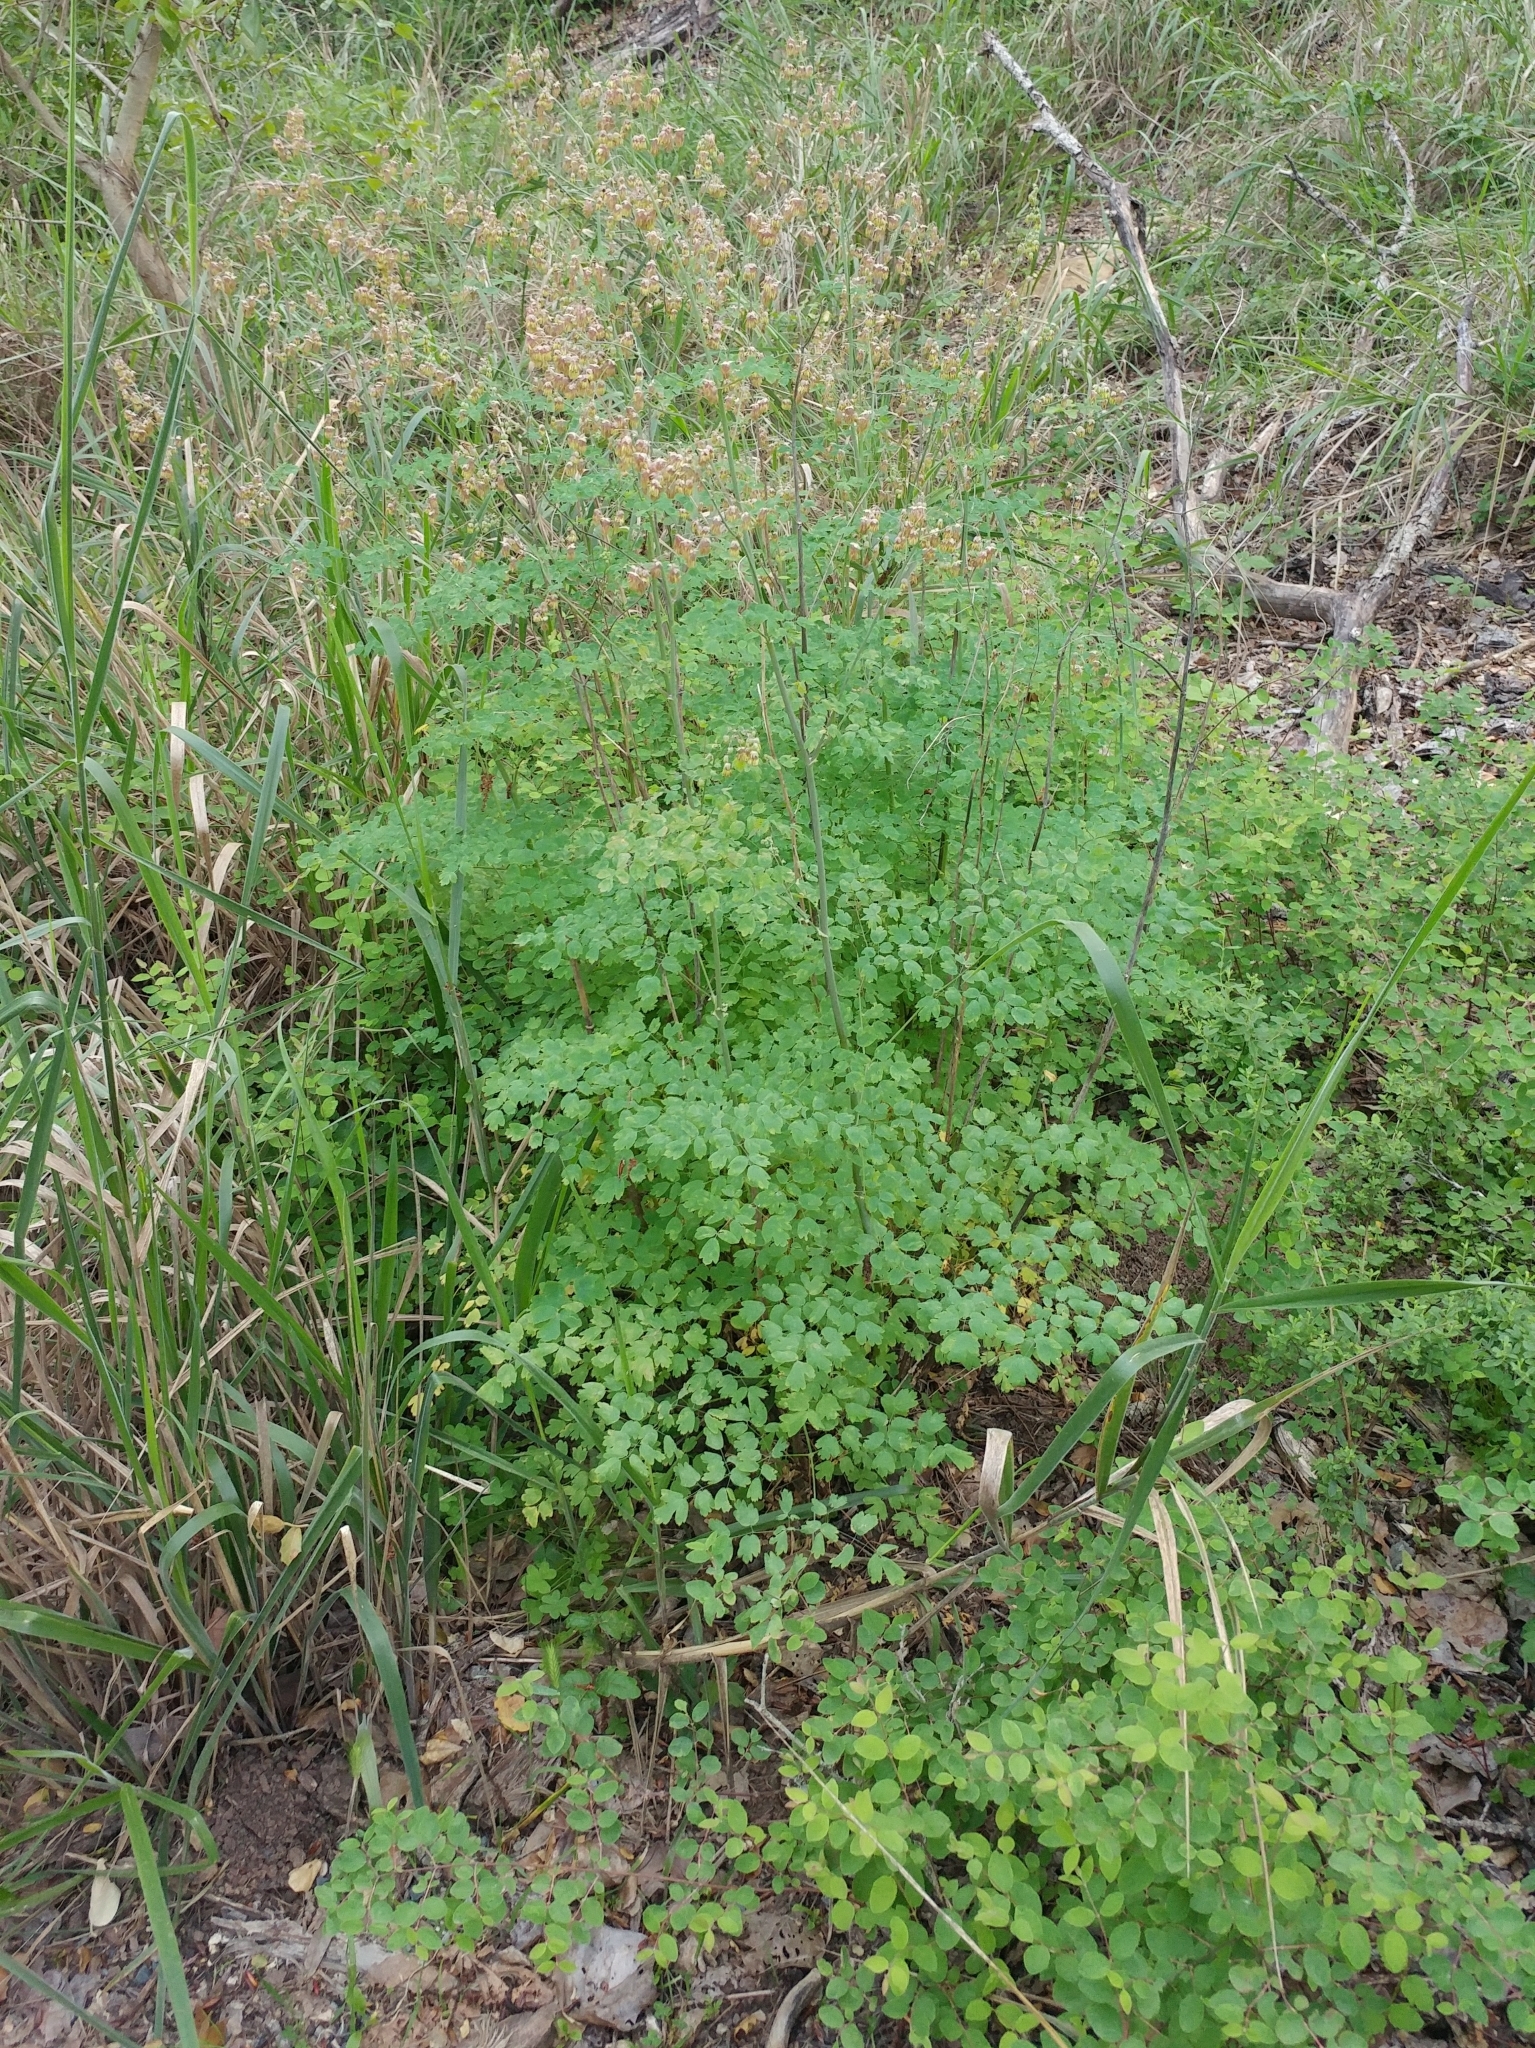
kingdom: Plantae
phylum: Tracheophyta
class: Magnoliopsida
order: Ranunculales
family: Ranunculaceae
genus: Thalictrum
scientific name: Thalictrum fendleri
